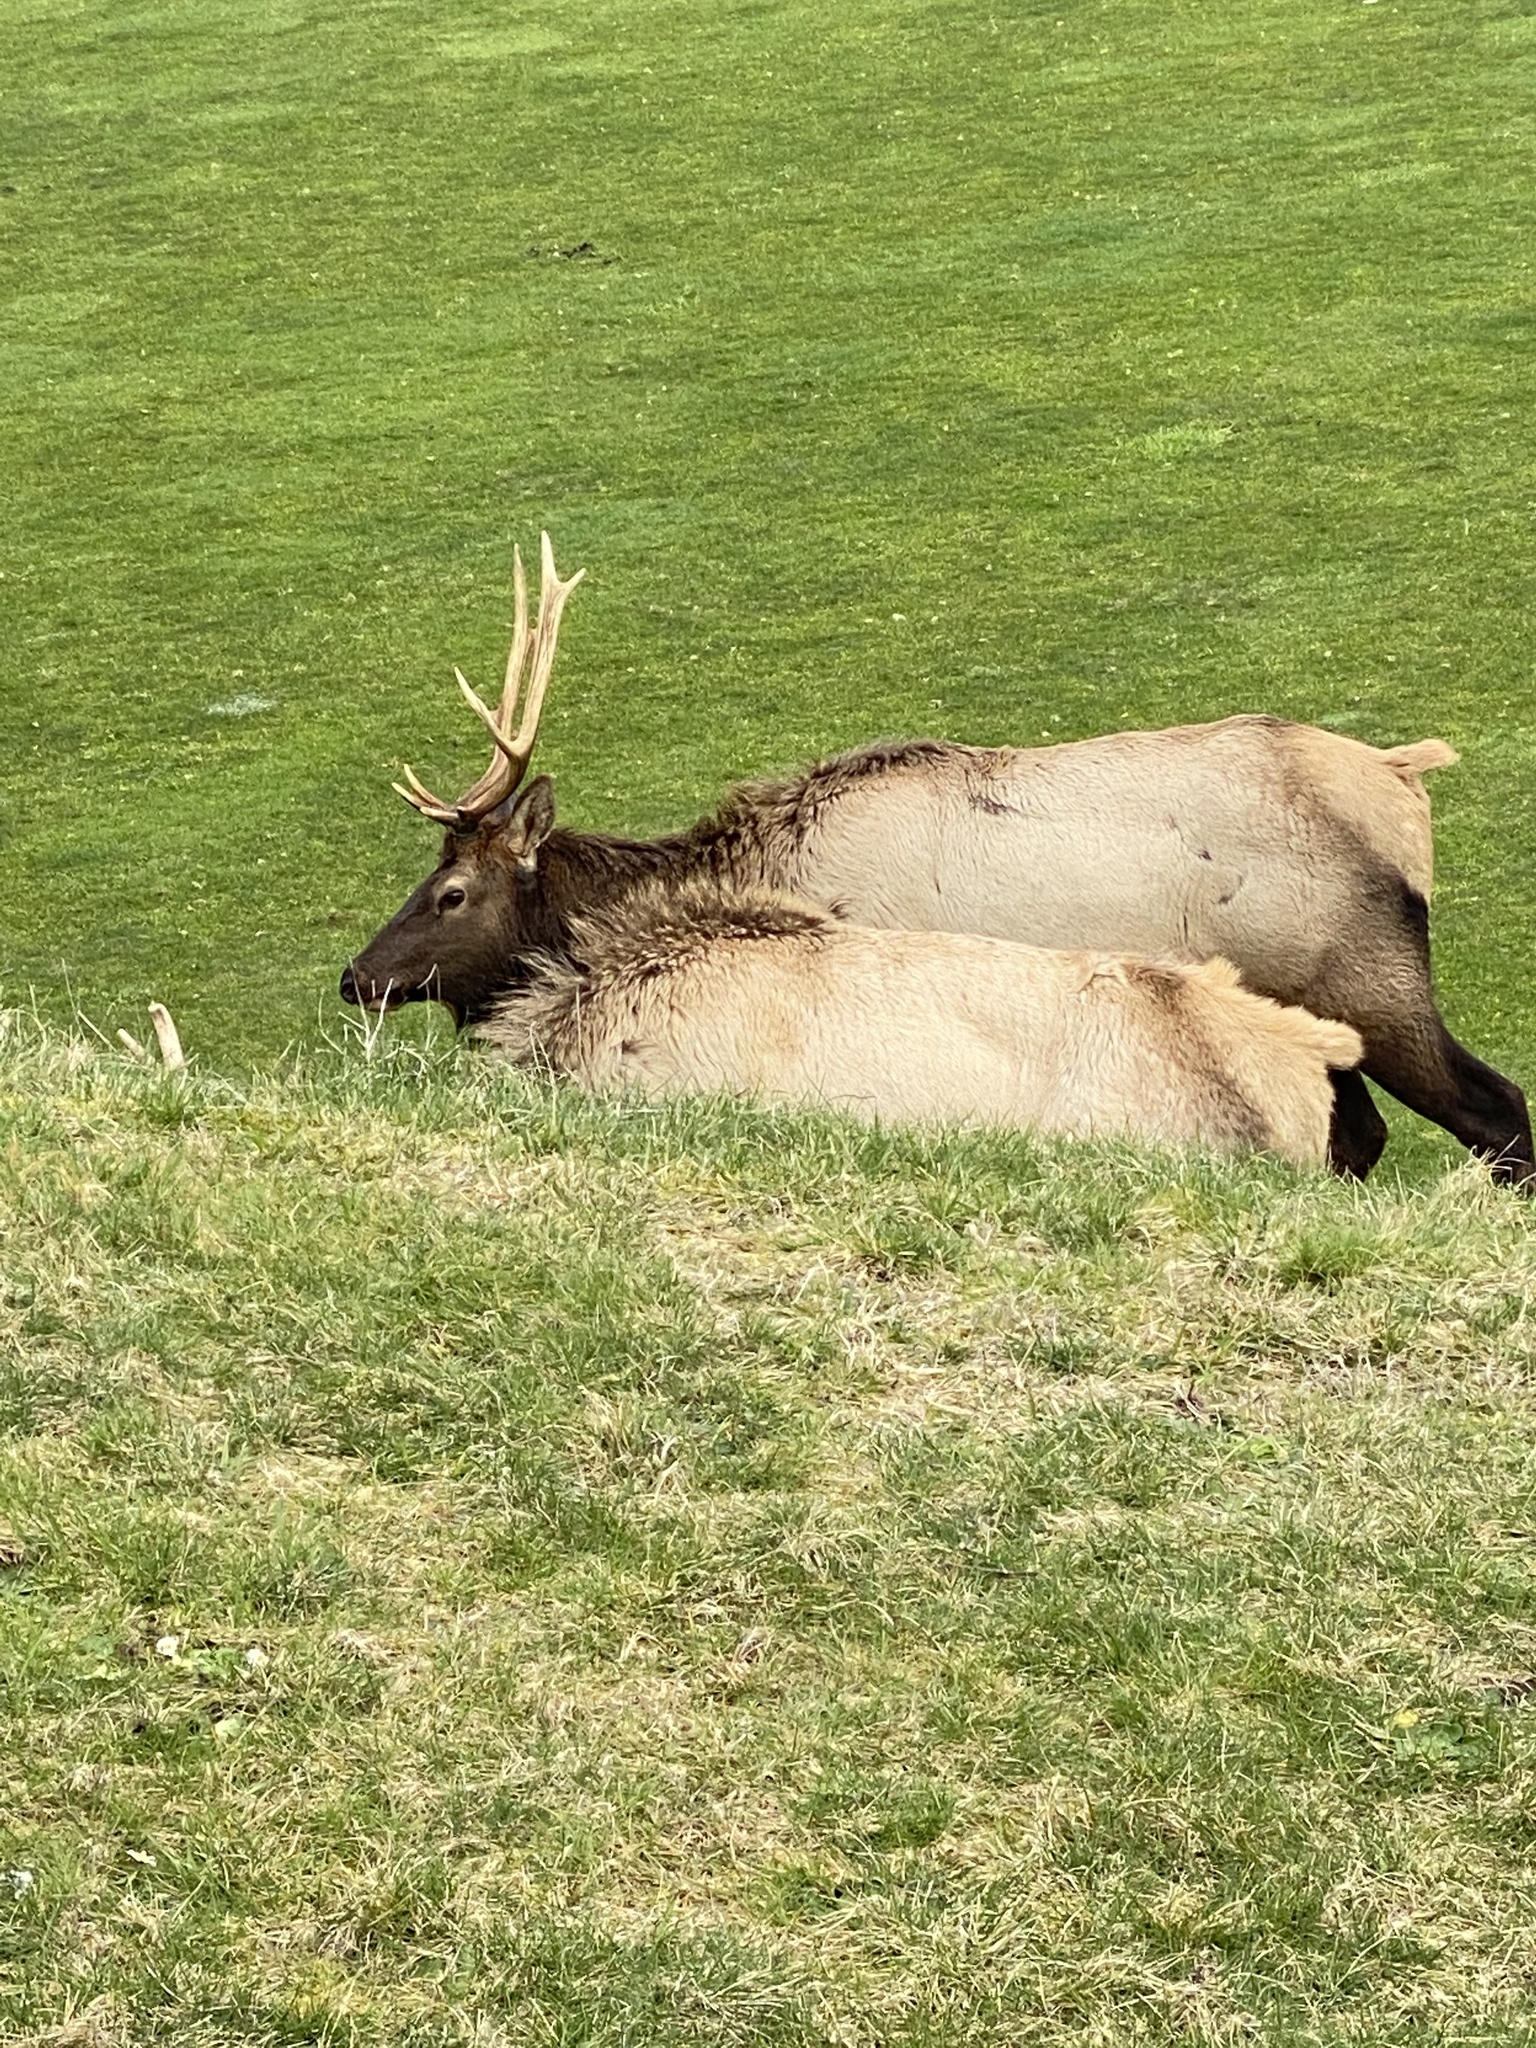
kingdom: Animalia
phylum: Chordata
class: Mammalia
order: Artiodactyla
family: Cervidae
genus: Cervus
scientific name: Cervus elaphus
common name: Red deer
